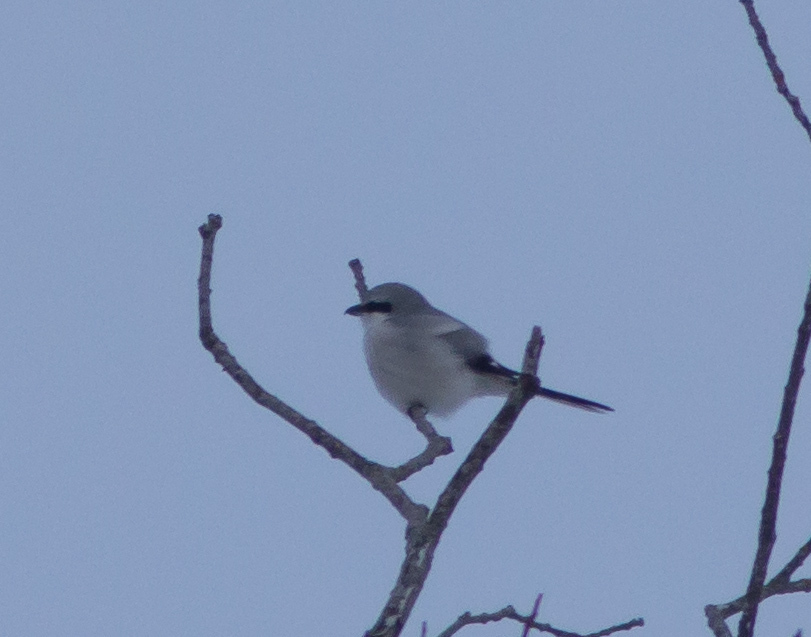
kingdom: Animalia
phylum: Chordata
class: Aves
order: Passeriformes
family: Laniidae
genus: Lanius
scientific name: Lanius excubitor
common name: Great grey shrike
